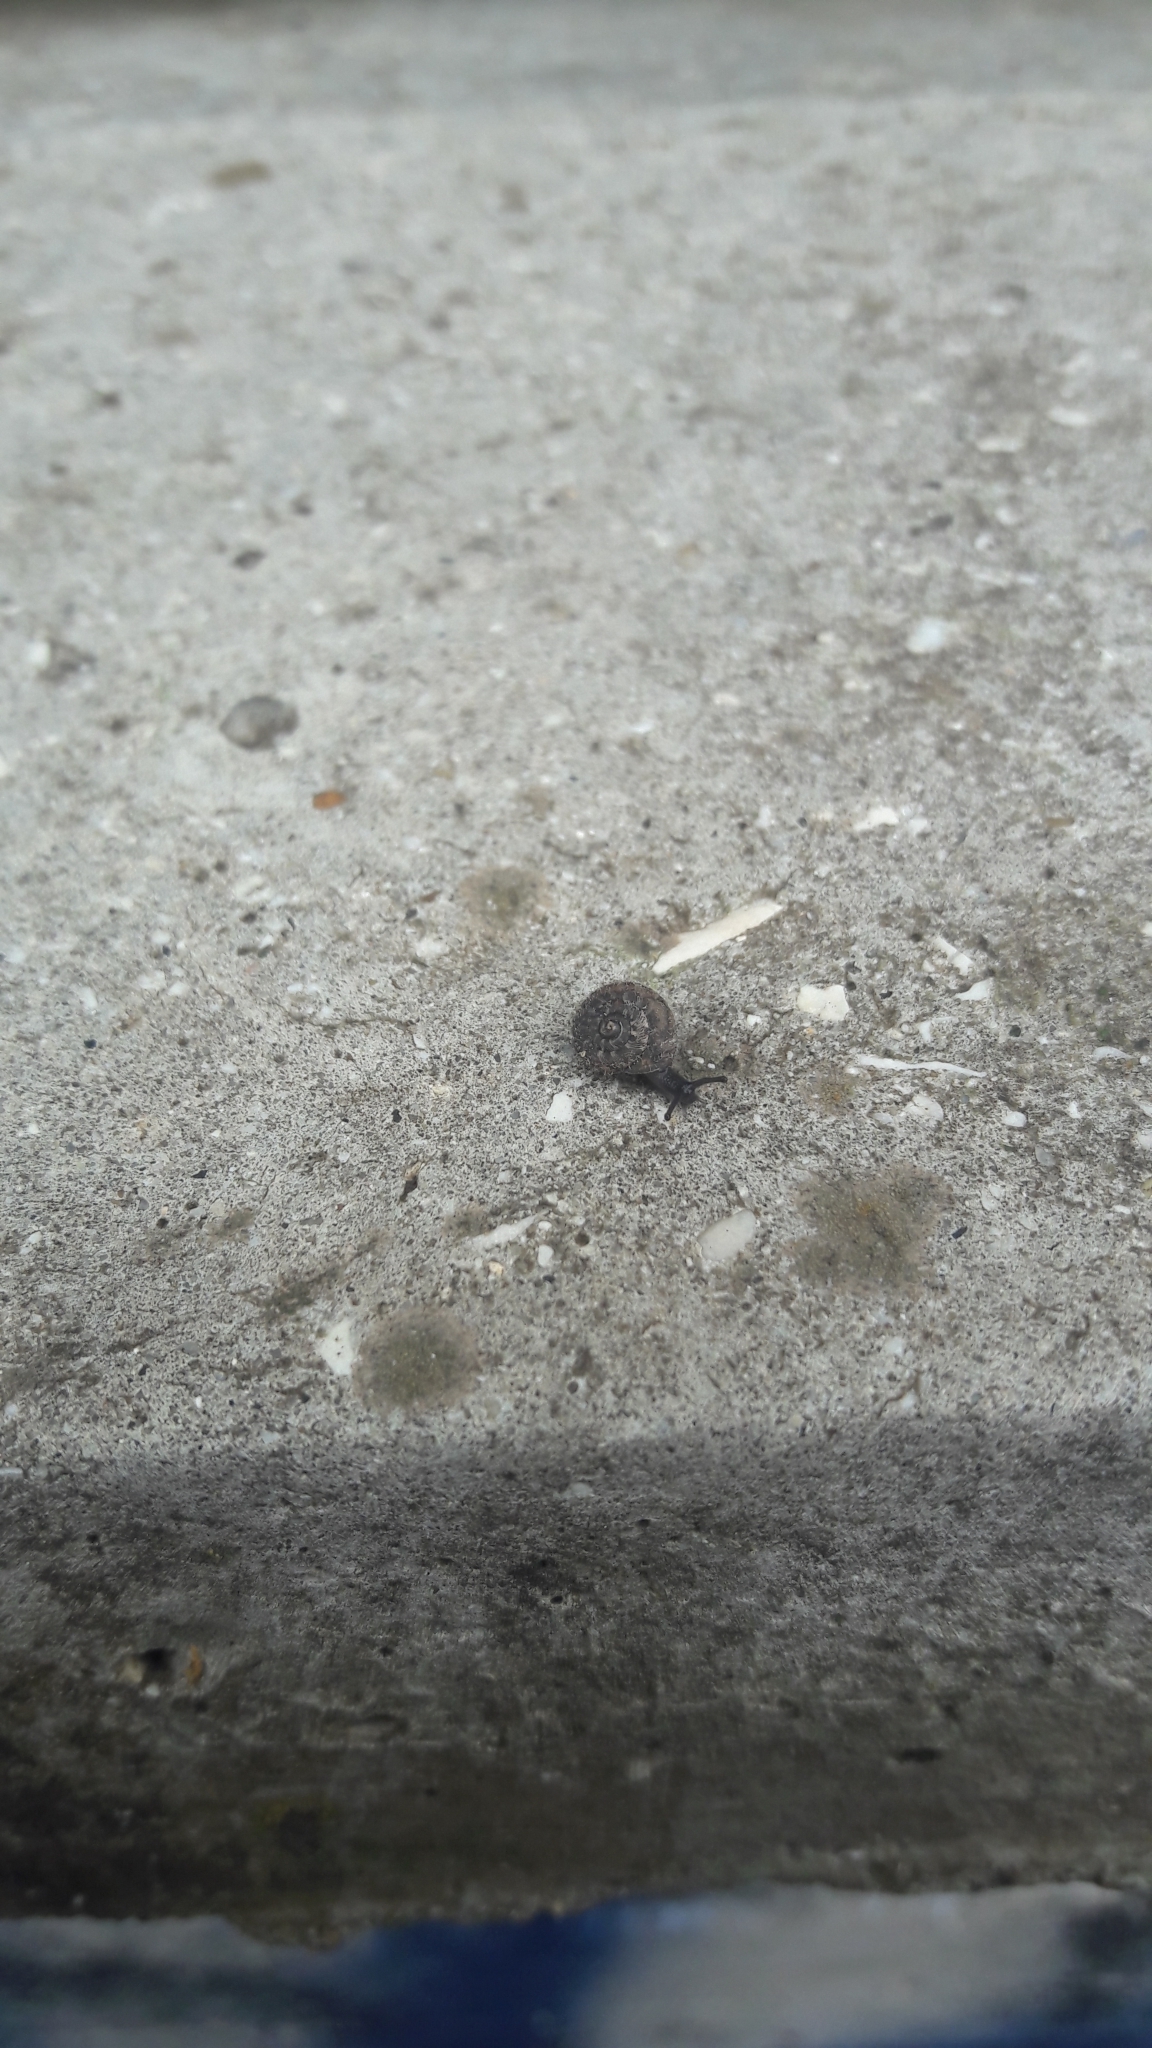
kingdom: Animalia
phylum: Mollusca
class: Gastropoda
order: Stylommatophora
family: Geomitridae
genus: Xerotricha
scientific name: Xerotricha conspurcata
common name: Snail
